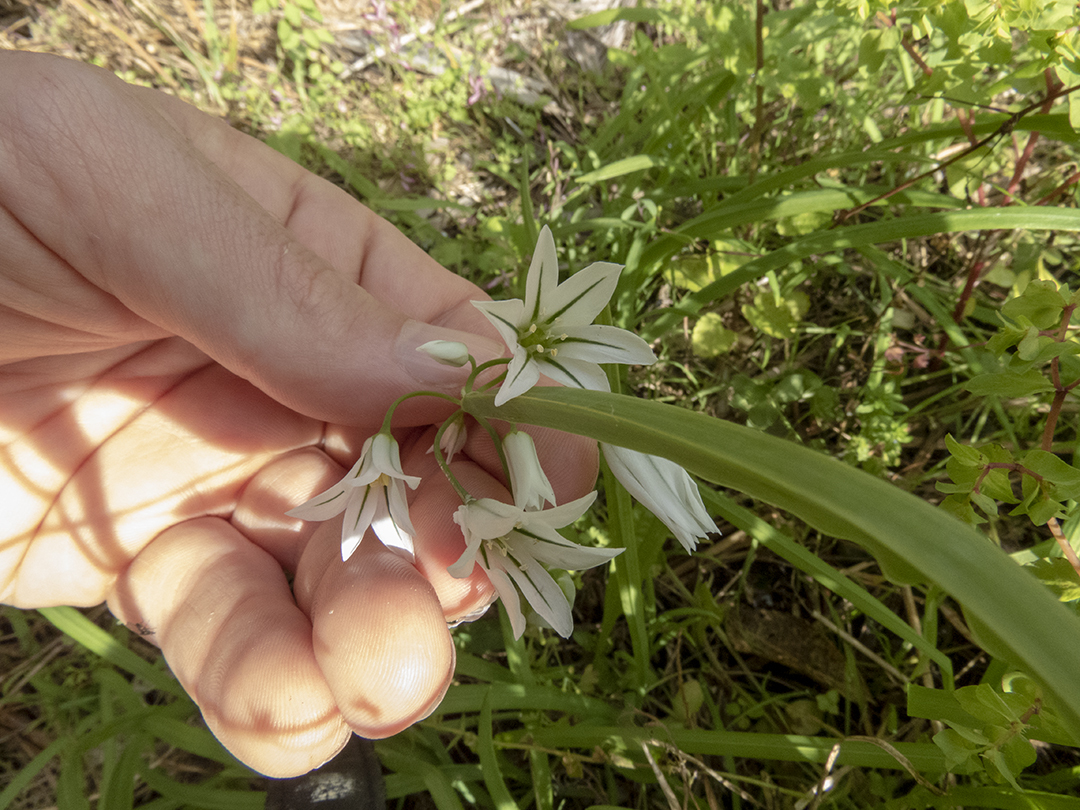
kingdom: Plantae
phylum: Tracheophyta
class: Liliopsida
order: Asparagales
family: Amaryllidaceae
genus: Allium
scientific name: Allium triquetrum
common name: Three-cornered garlic
